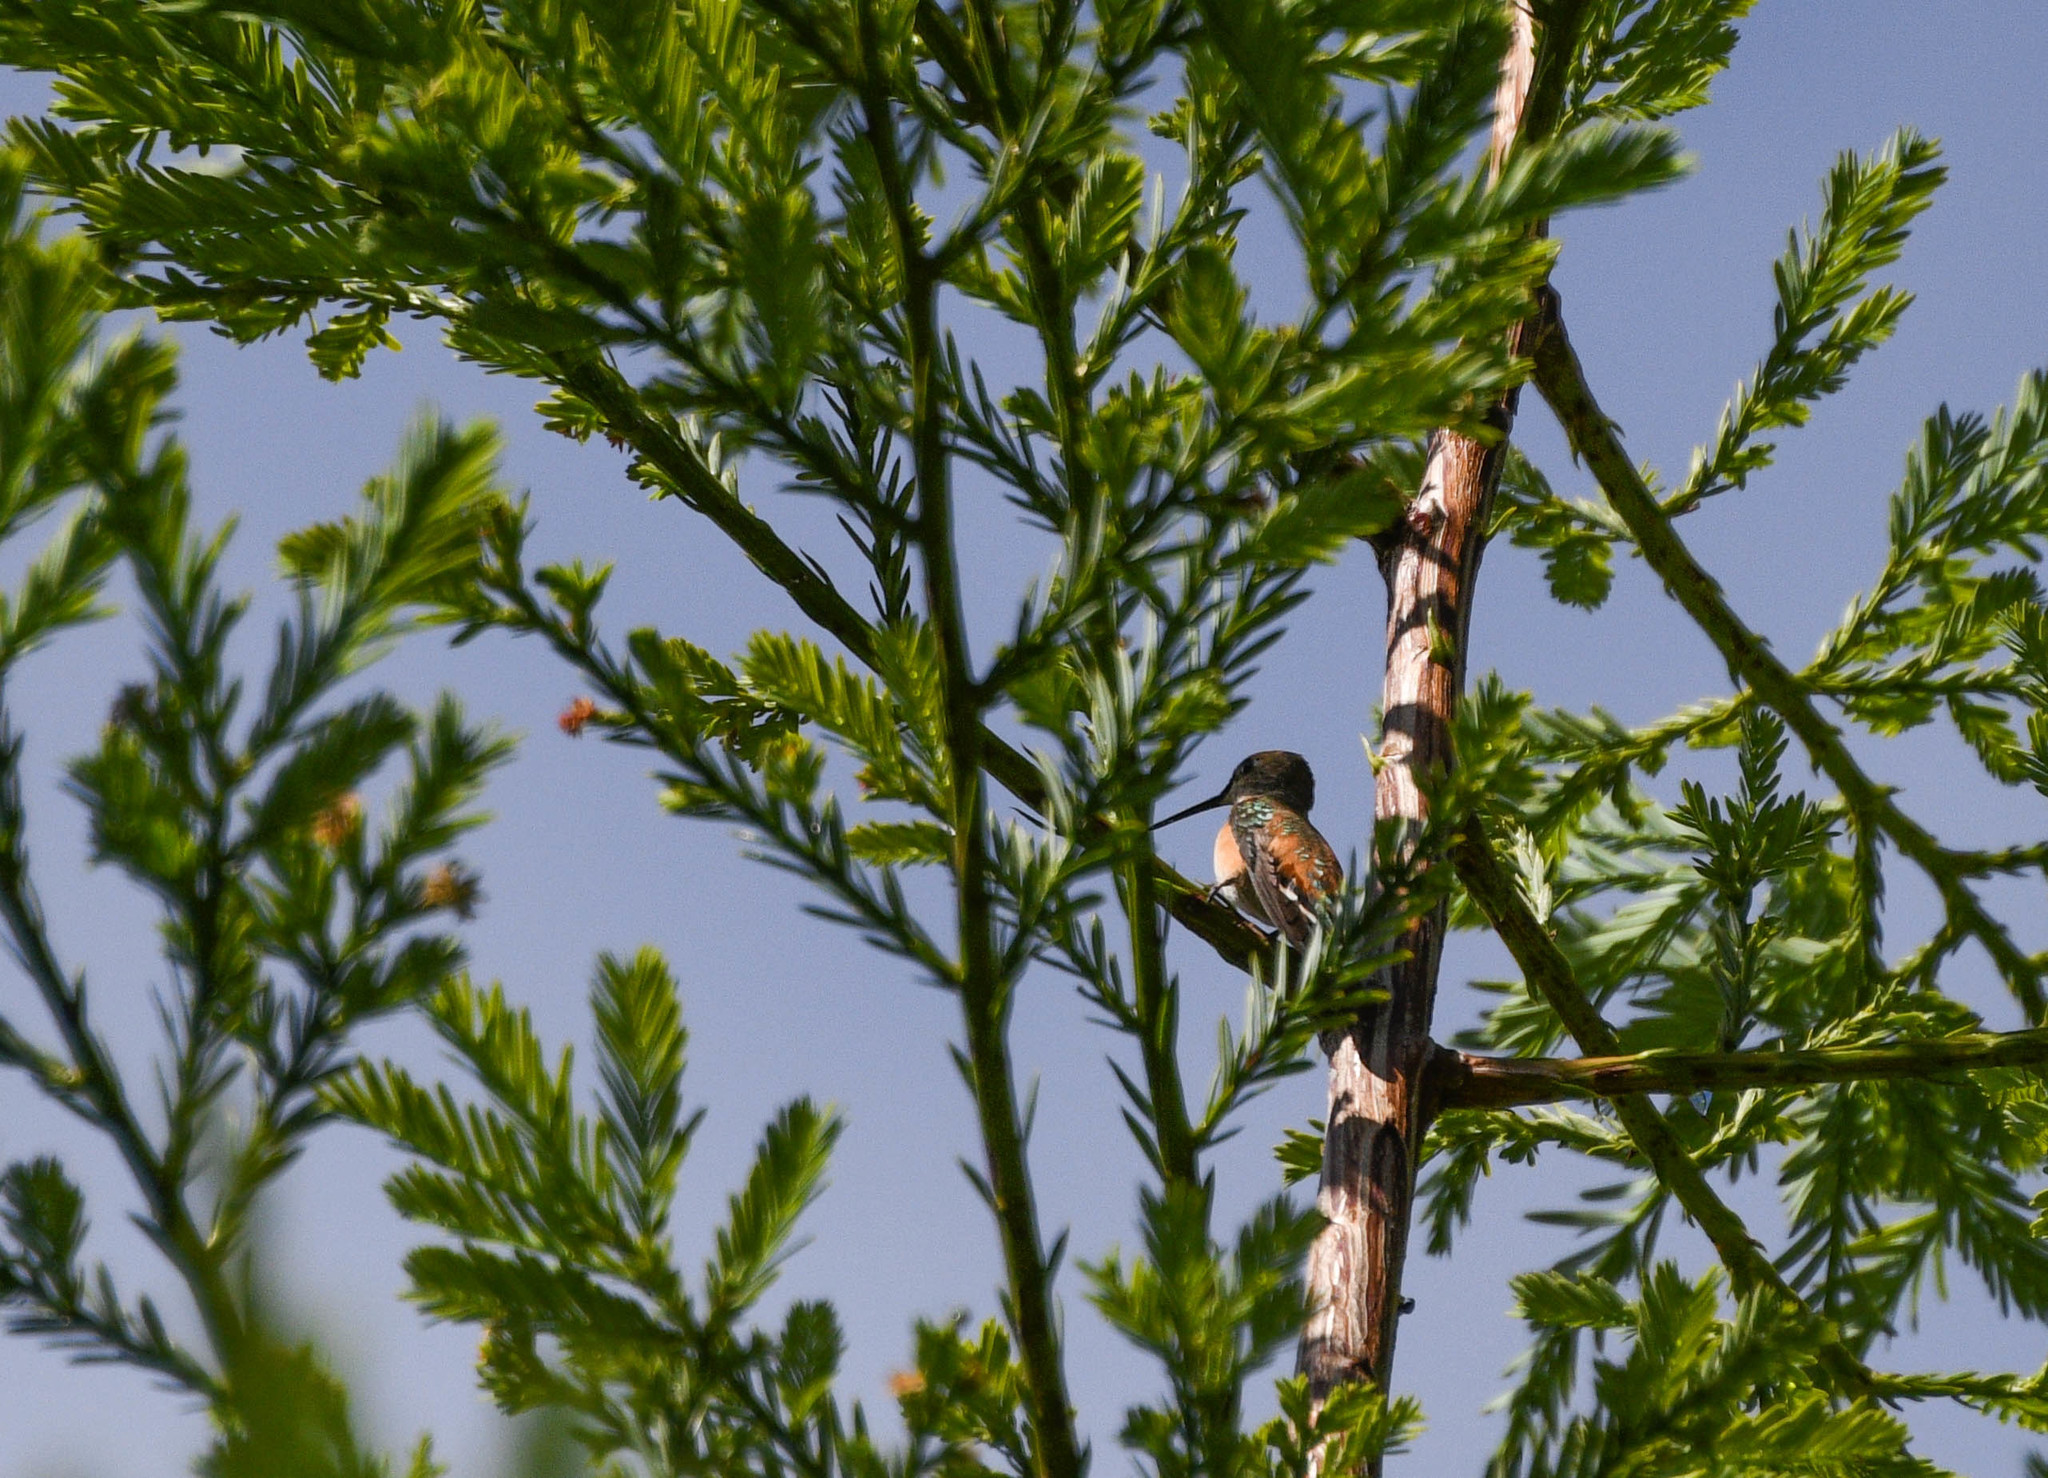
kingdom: Animalia
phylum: Chordata
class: Aves
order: Apodiformes
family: Trochilidae
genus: Selasphorus
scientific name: Selasphorus sasin
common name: Allen's hummingbird
